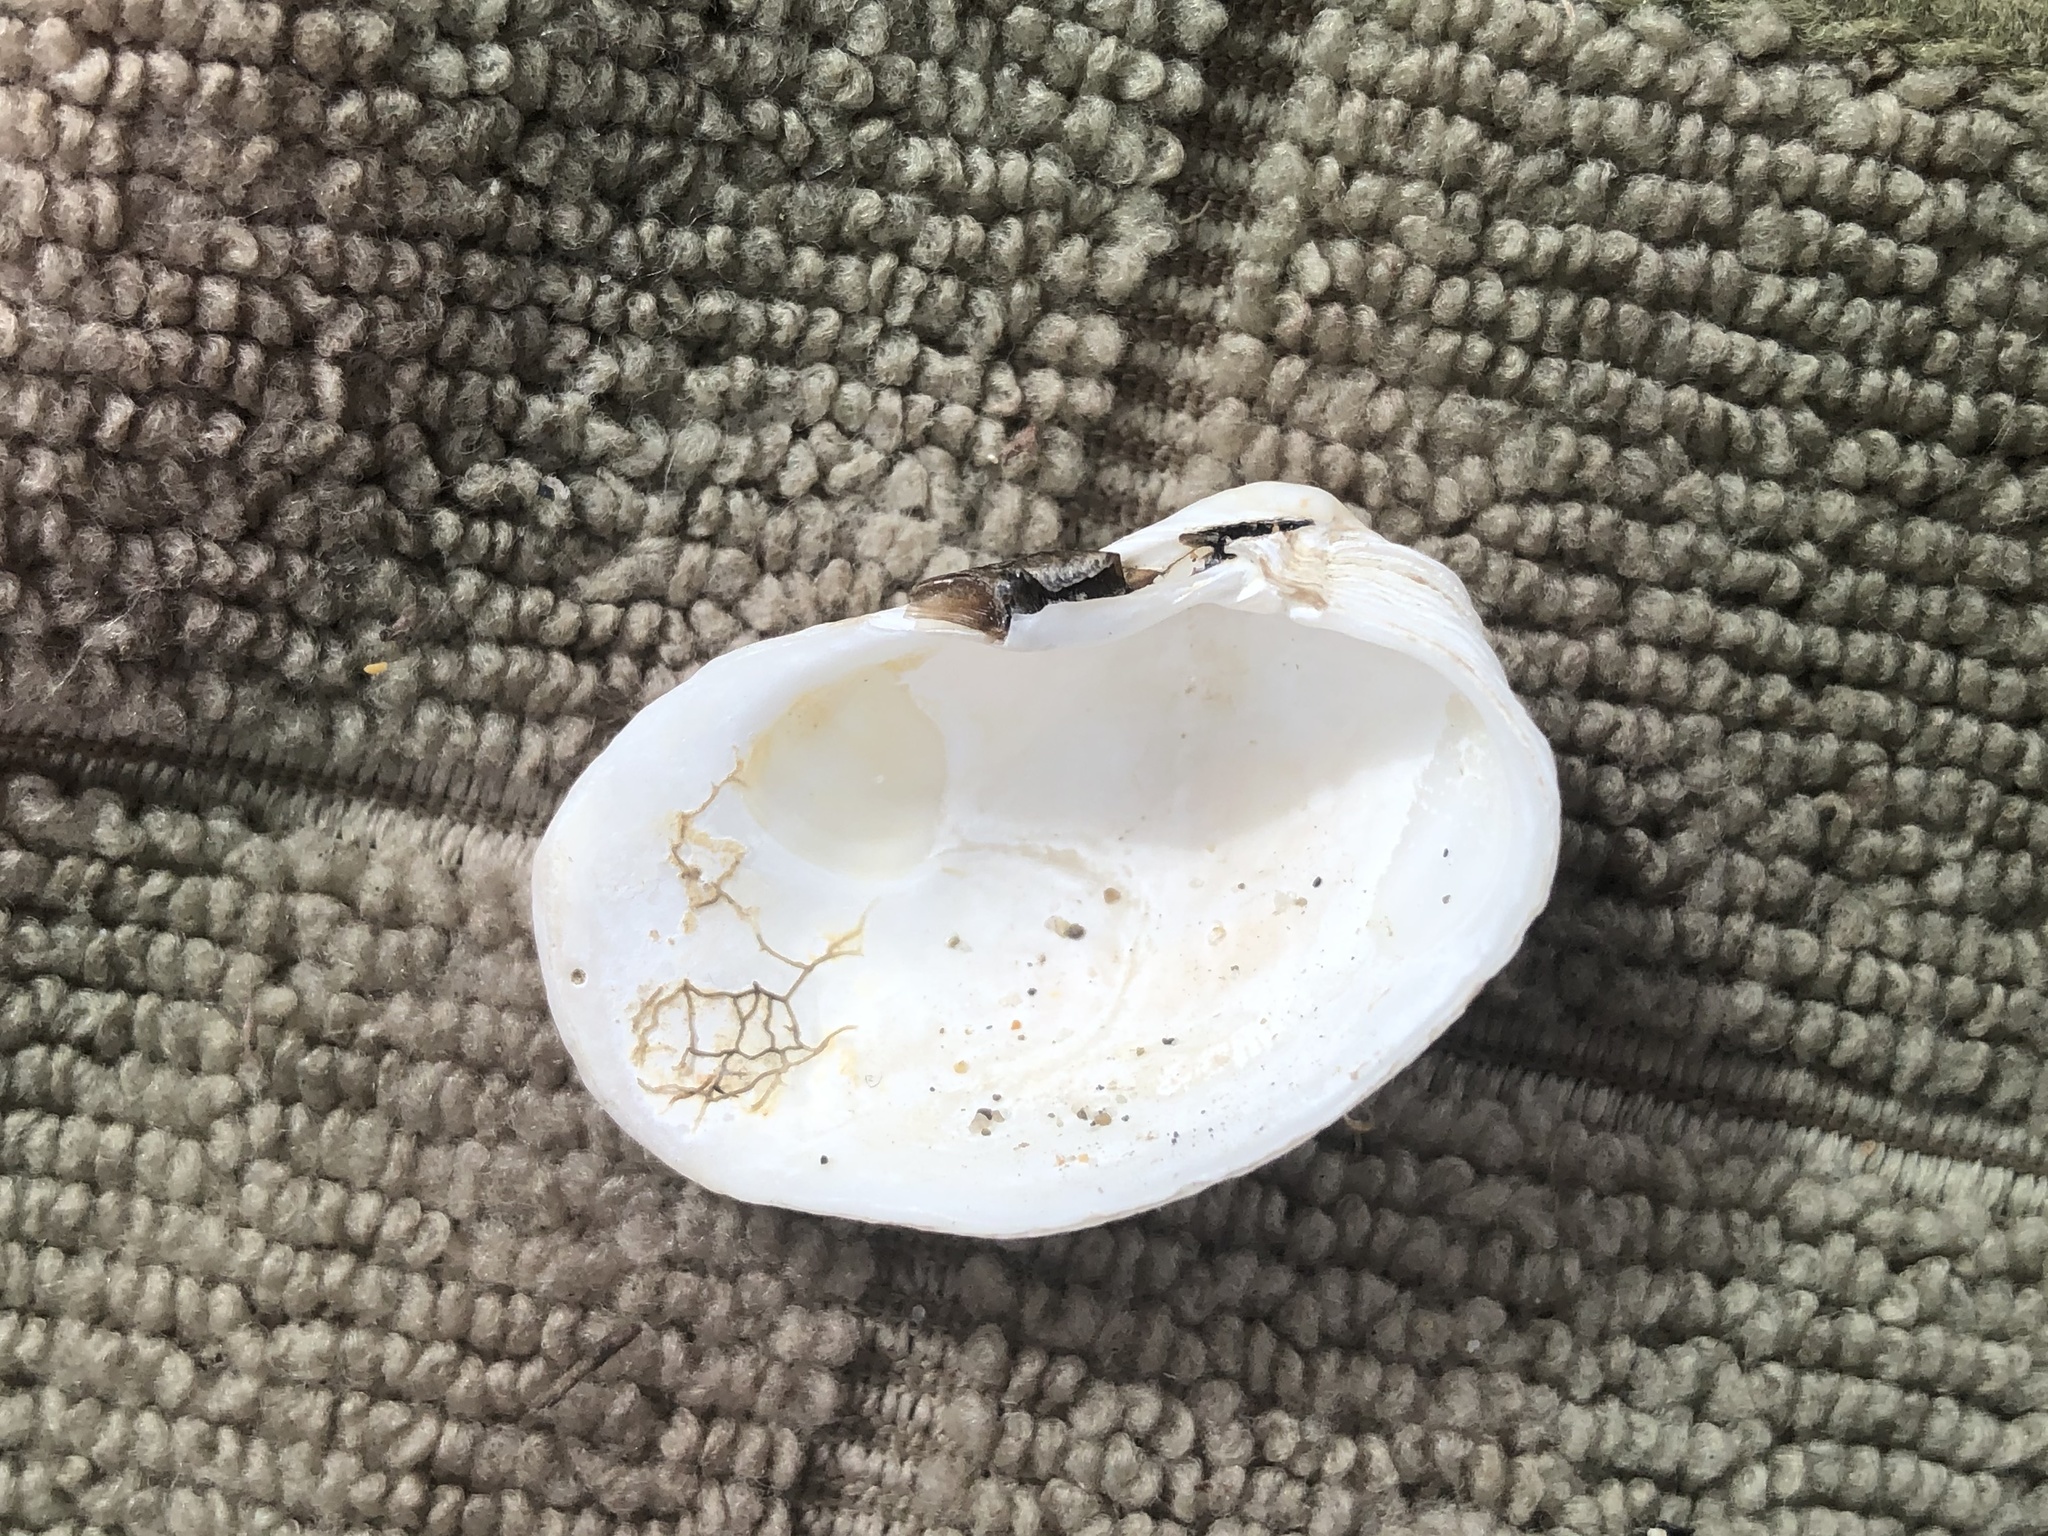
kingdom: Animalia
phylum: Mollusca
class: Bivalvia
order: Venerida
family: Veneridae
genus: Petricola
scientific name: Petricola carditoides
